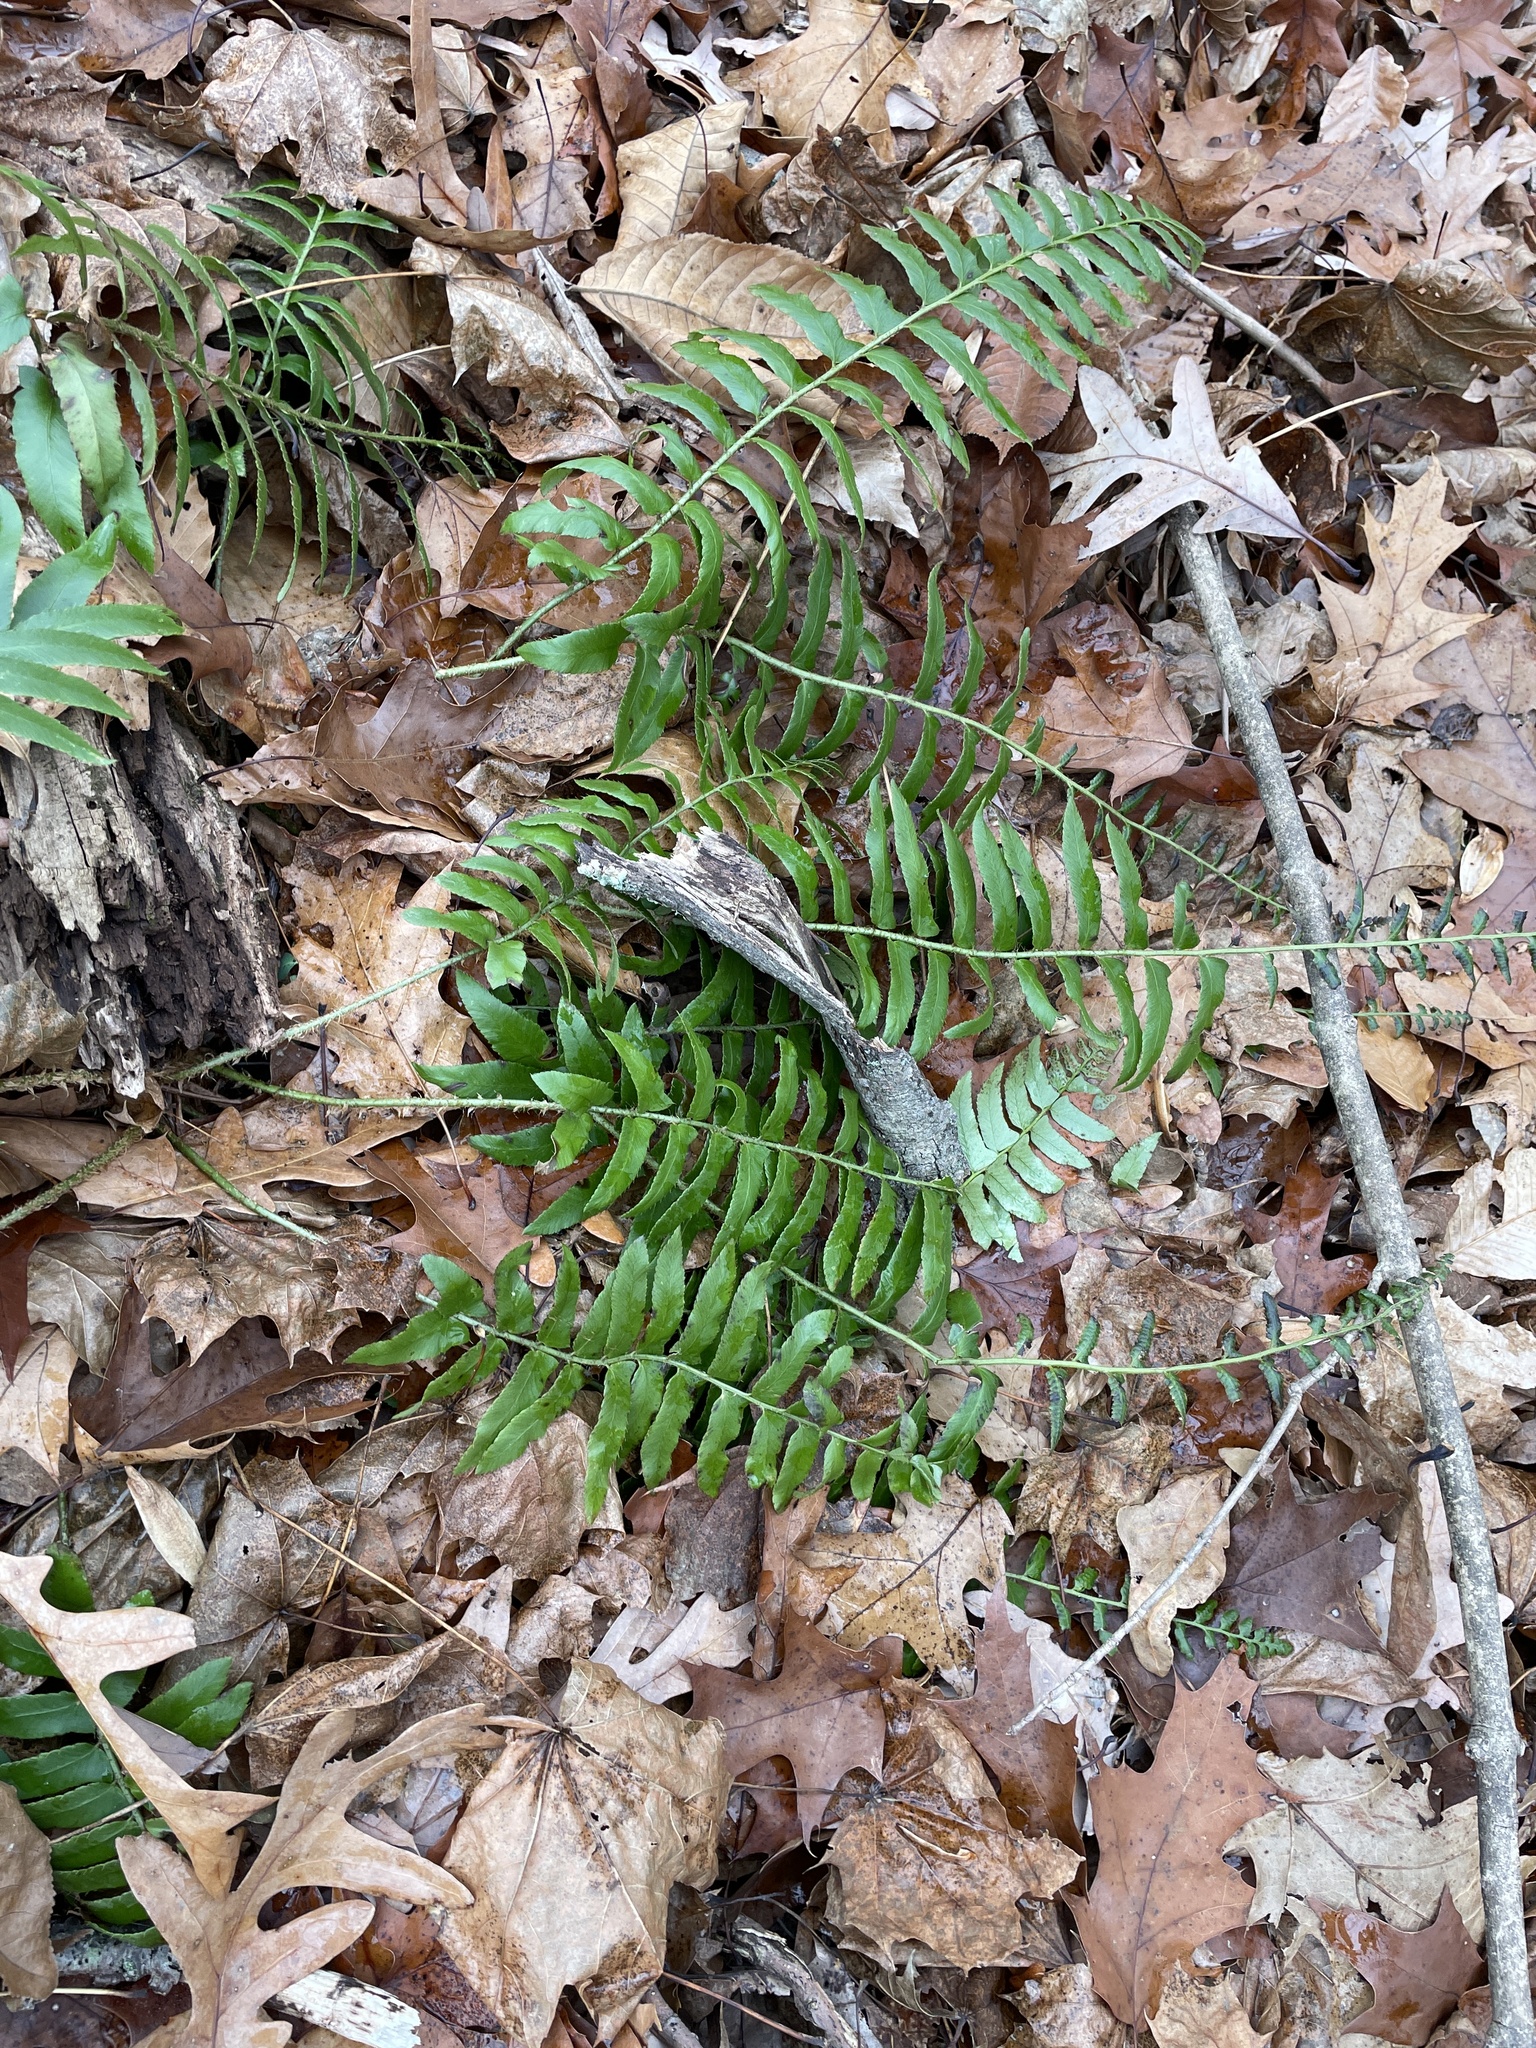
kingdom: Plantae
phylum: Tracheophyta
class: Polypodiopsida
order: Polypodiales
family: Dryopteridaceae
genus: Polystichum
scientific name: Polystichum acrostichoides
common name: Christmas fern
